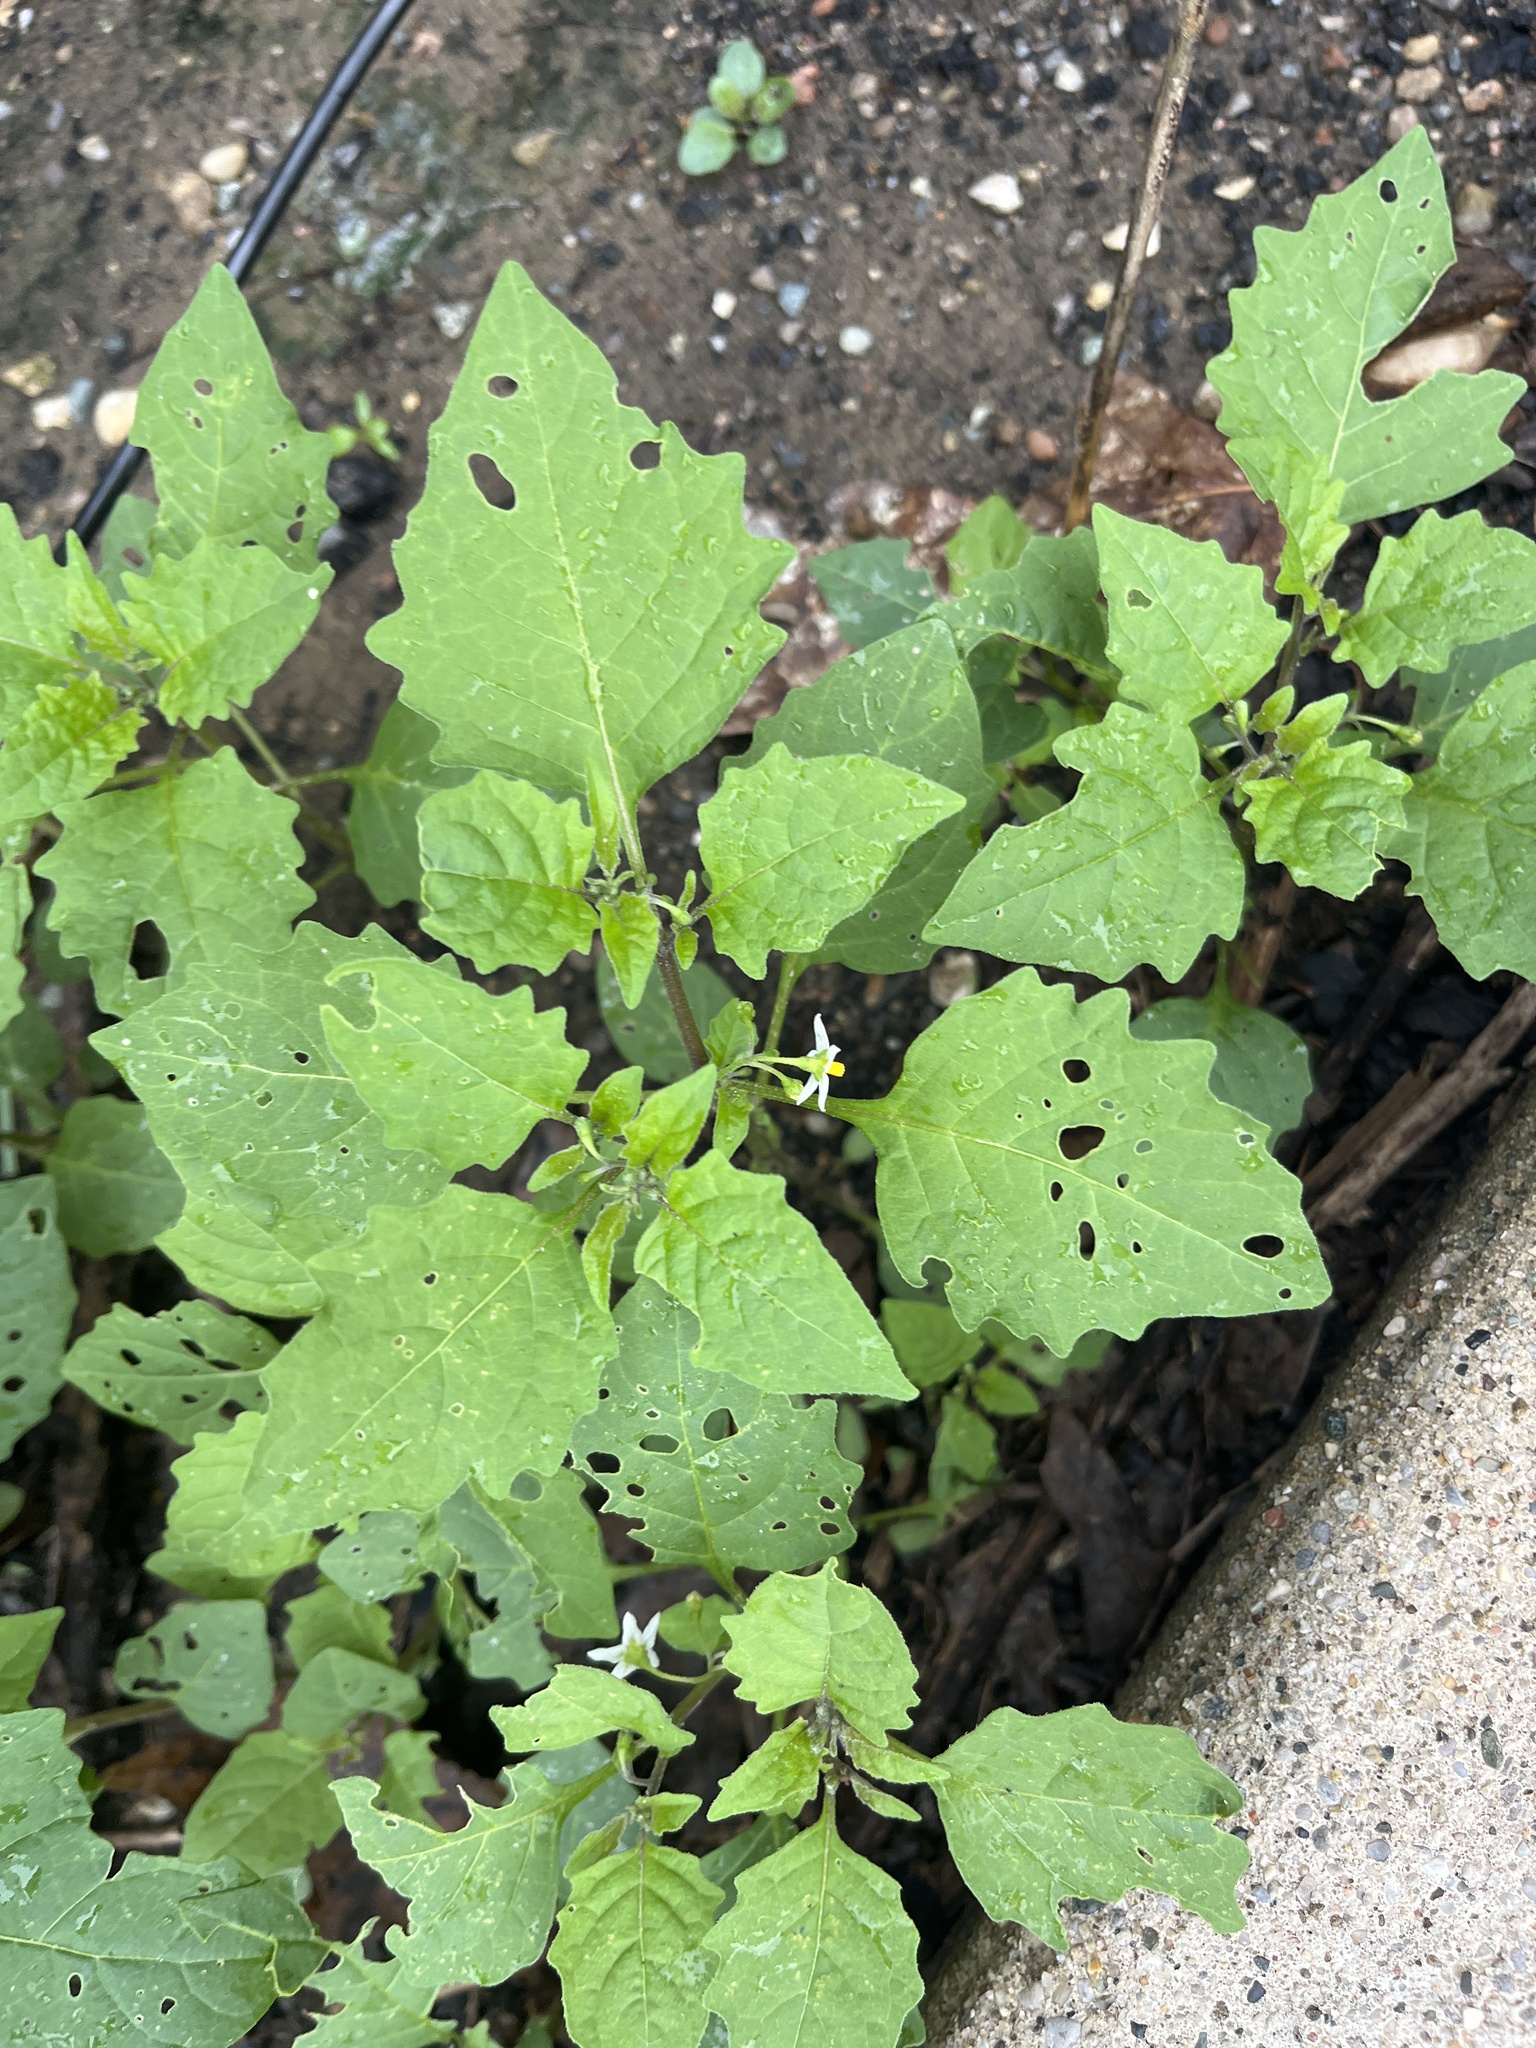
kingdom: Plantae
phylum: Tracheophyta
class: Magnoliopsida
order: Solanales
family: Solanaceae
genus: Solanum
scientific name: Solanum emulans
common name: Eastern black nightshade
